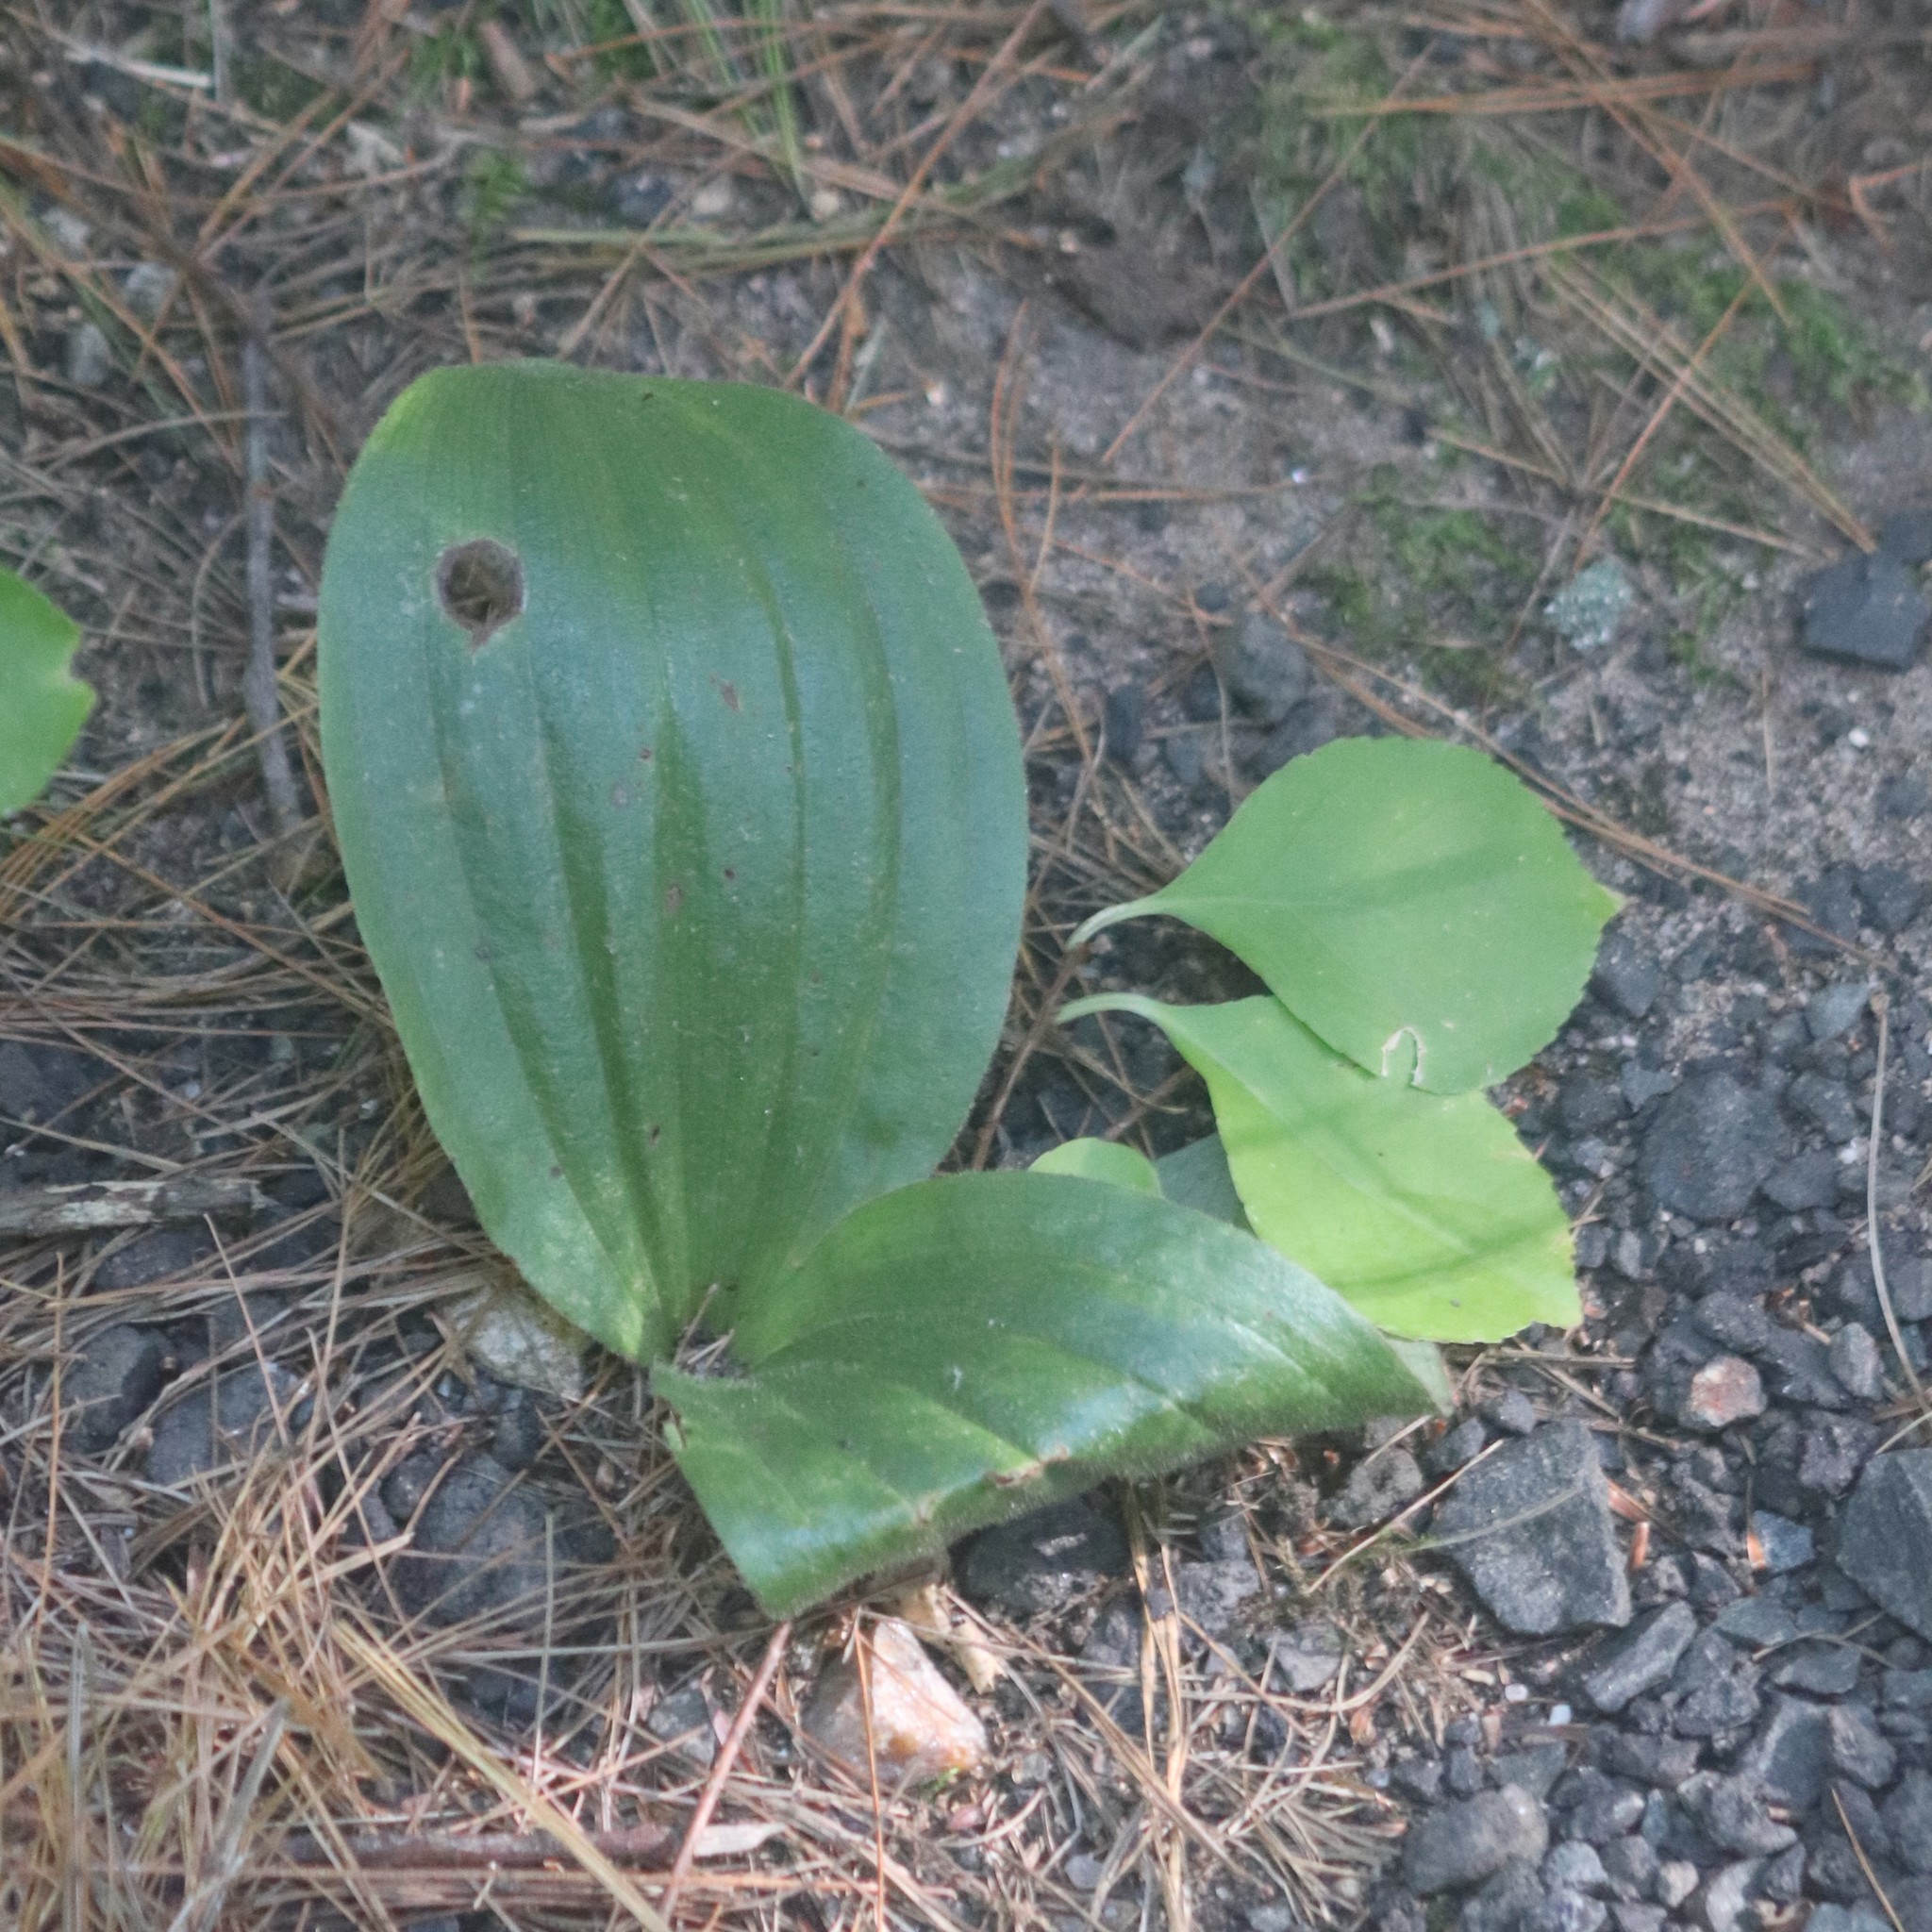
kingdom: Plantae
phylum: Tracheophyta
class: Liliopsida
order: Asparagales
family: Orchidaceae
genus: Cypripedium
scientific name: Cypripedium acaule
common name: Pink lady's-slipper
